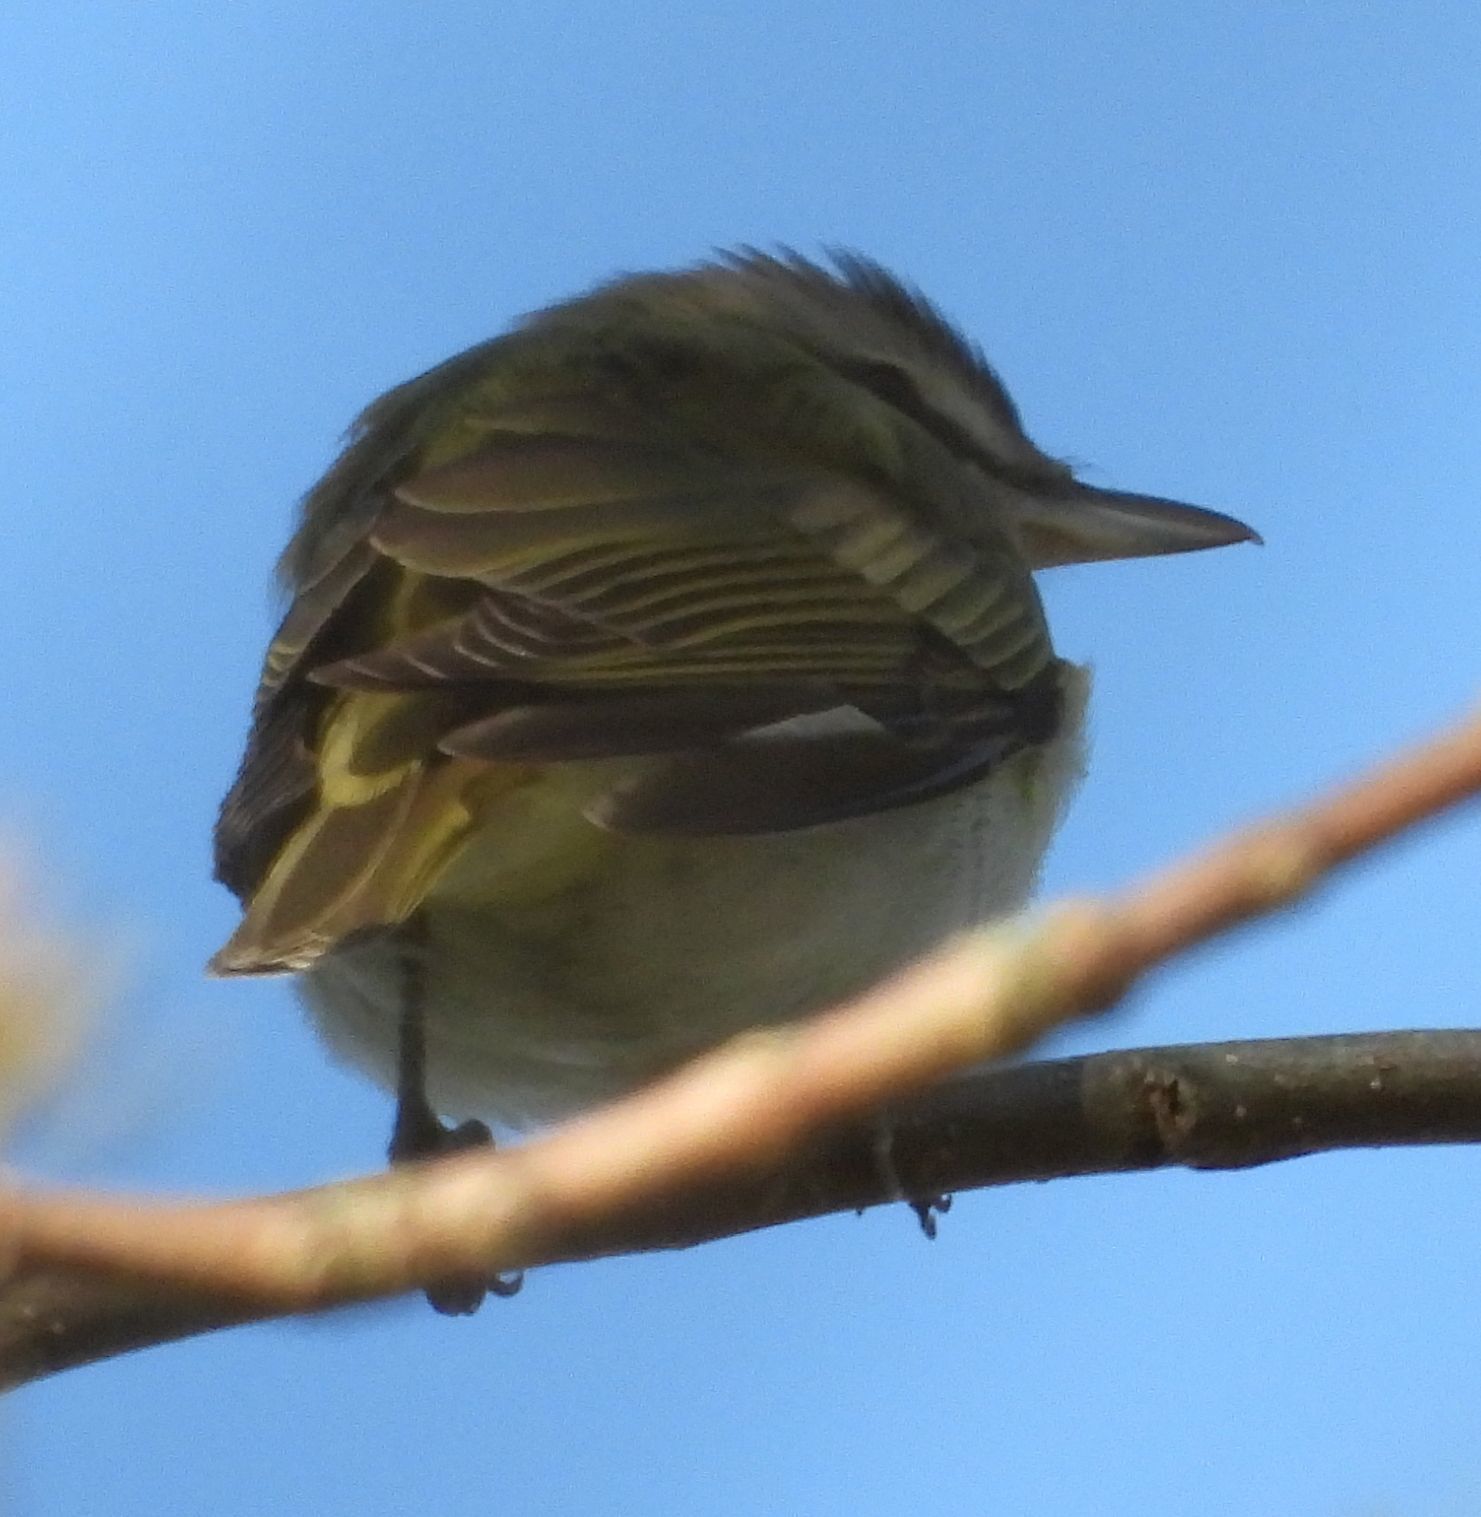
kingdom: Animalia
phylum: Chordata
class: Aves
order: Passeriformes
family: Vireonidae
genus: Vireo
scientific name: Vireo olivaceus
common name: Red-eyed vireo
